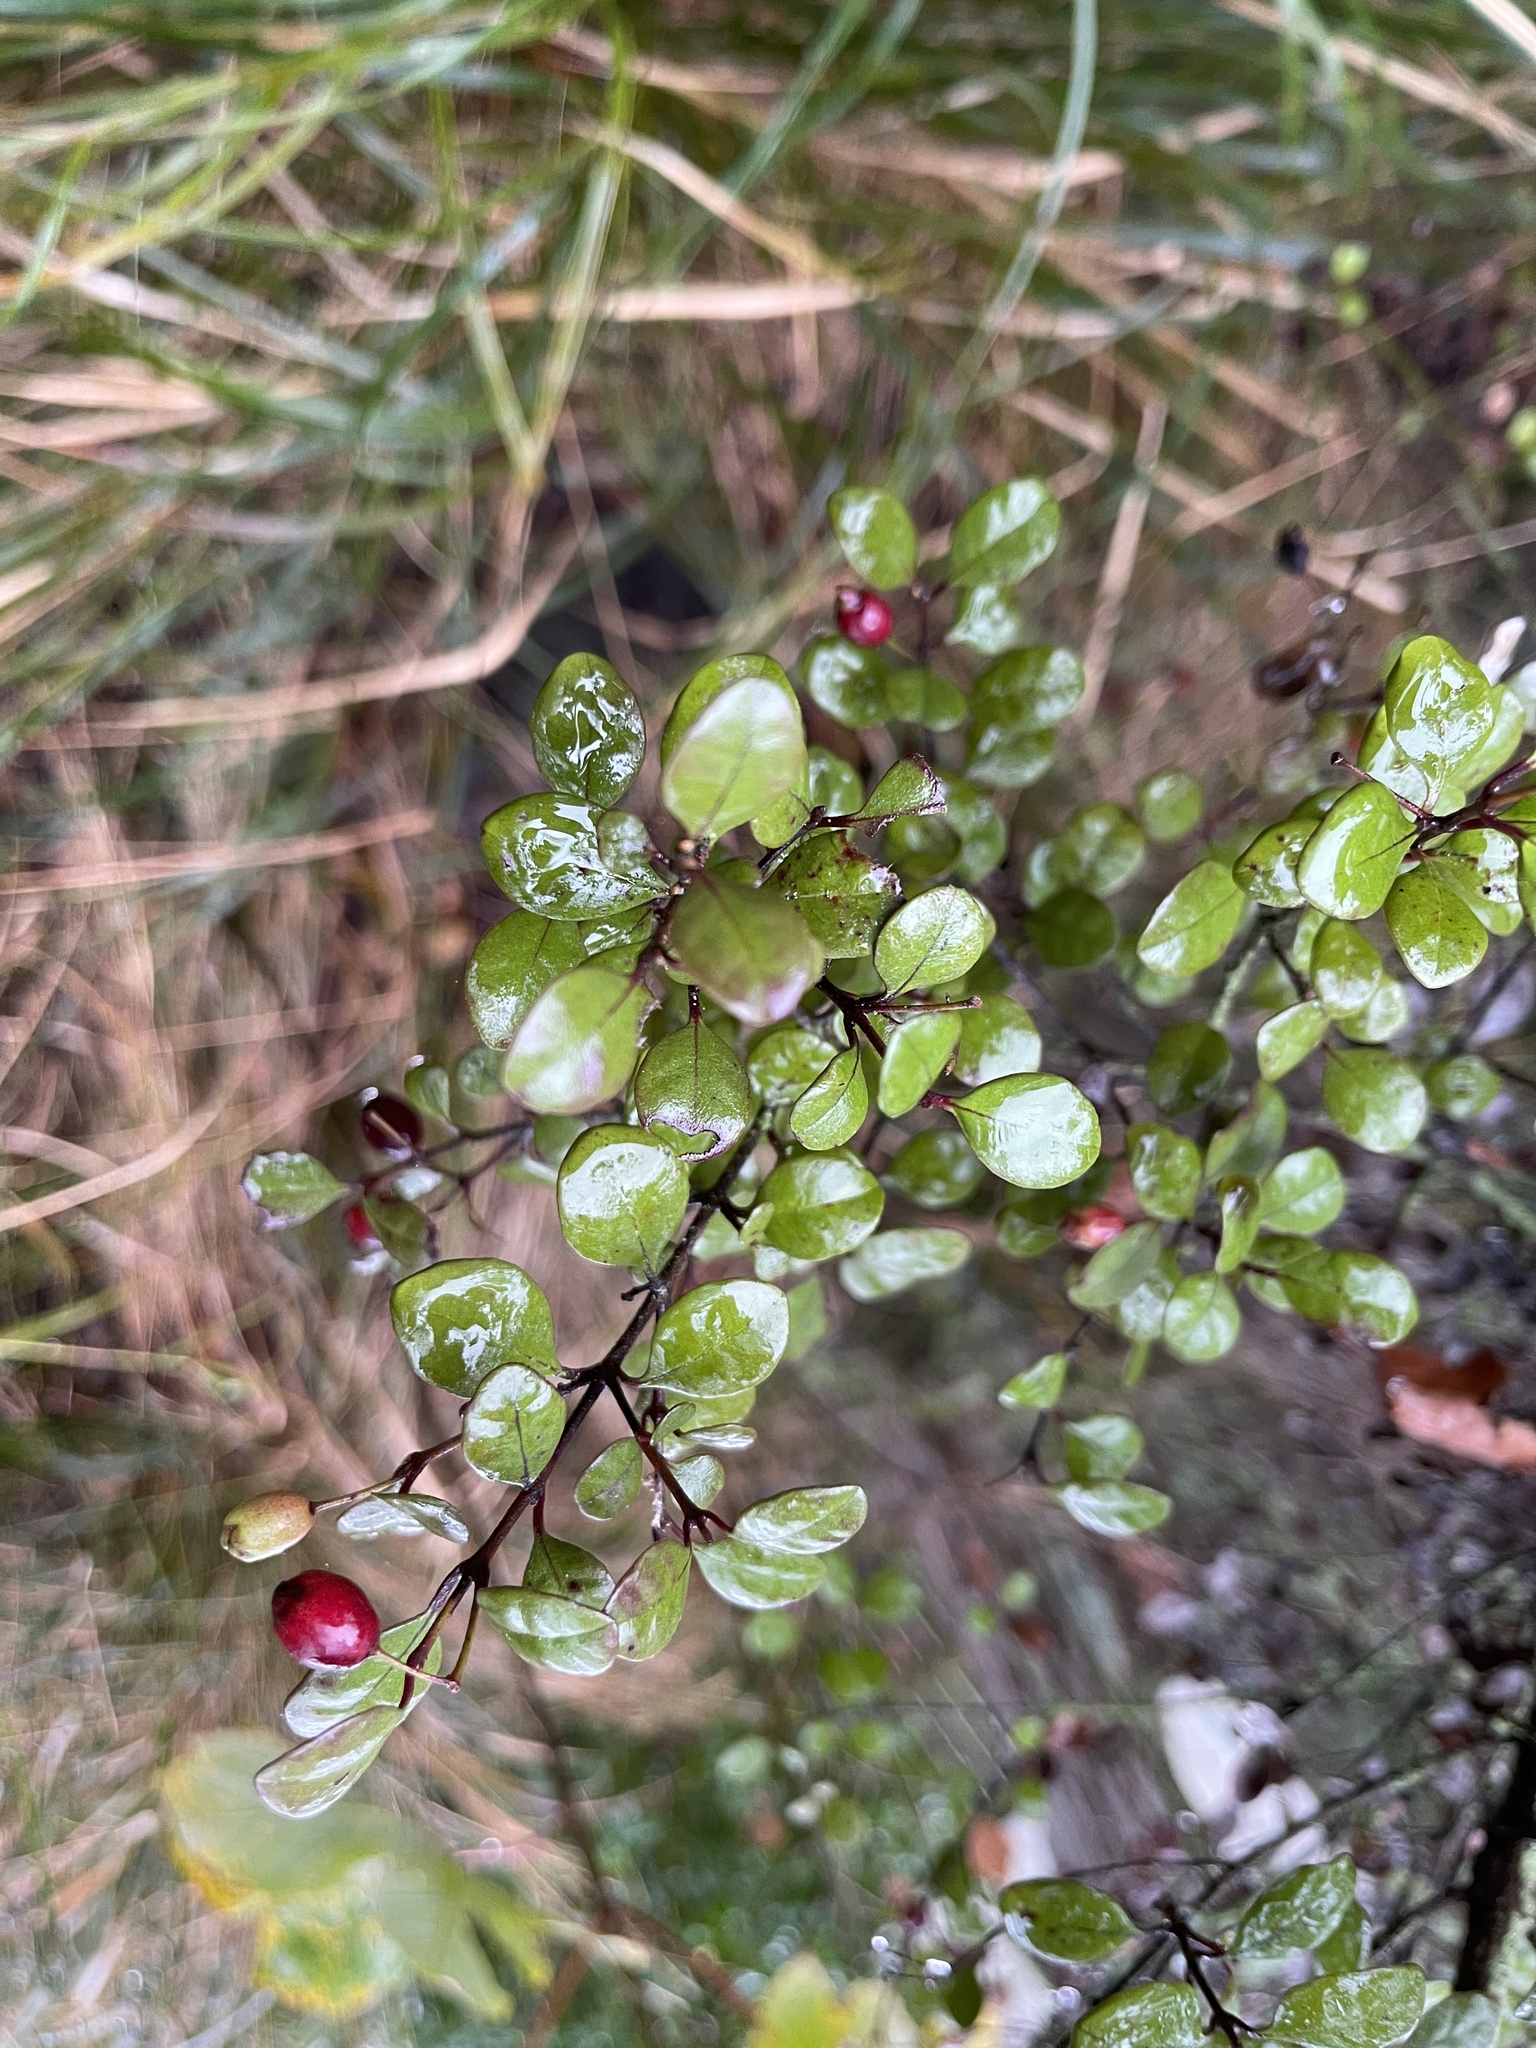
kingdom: Plantae
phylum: Tracheophyta
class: Magnoliopsida
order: Myrtales
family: Myrtaceae
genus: Lophomyrtus
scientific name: Lophomyrtus obcordata
